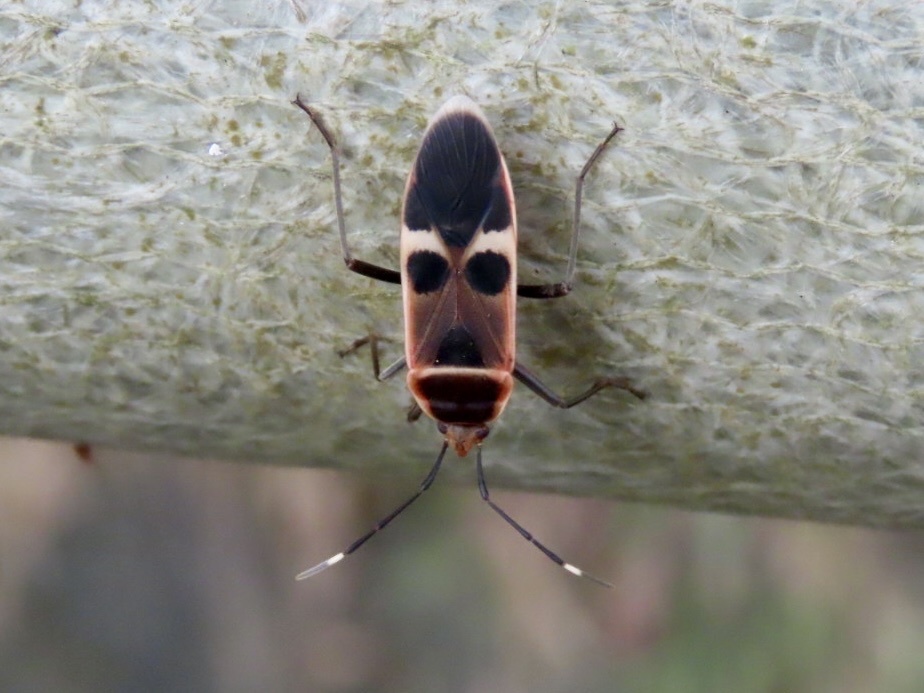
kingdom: Animalia
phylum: Arthropoda
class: Insecta
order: Hemiptera
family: Largidae
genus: Physopelta
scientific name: Physopelta gutta
